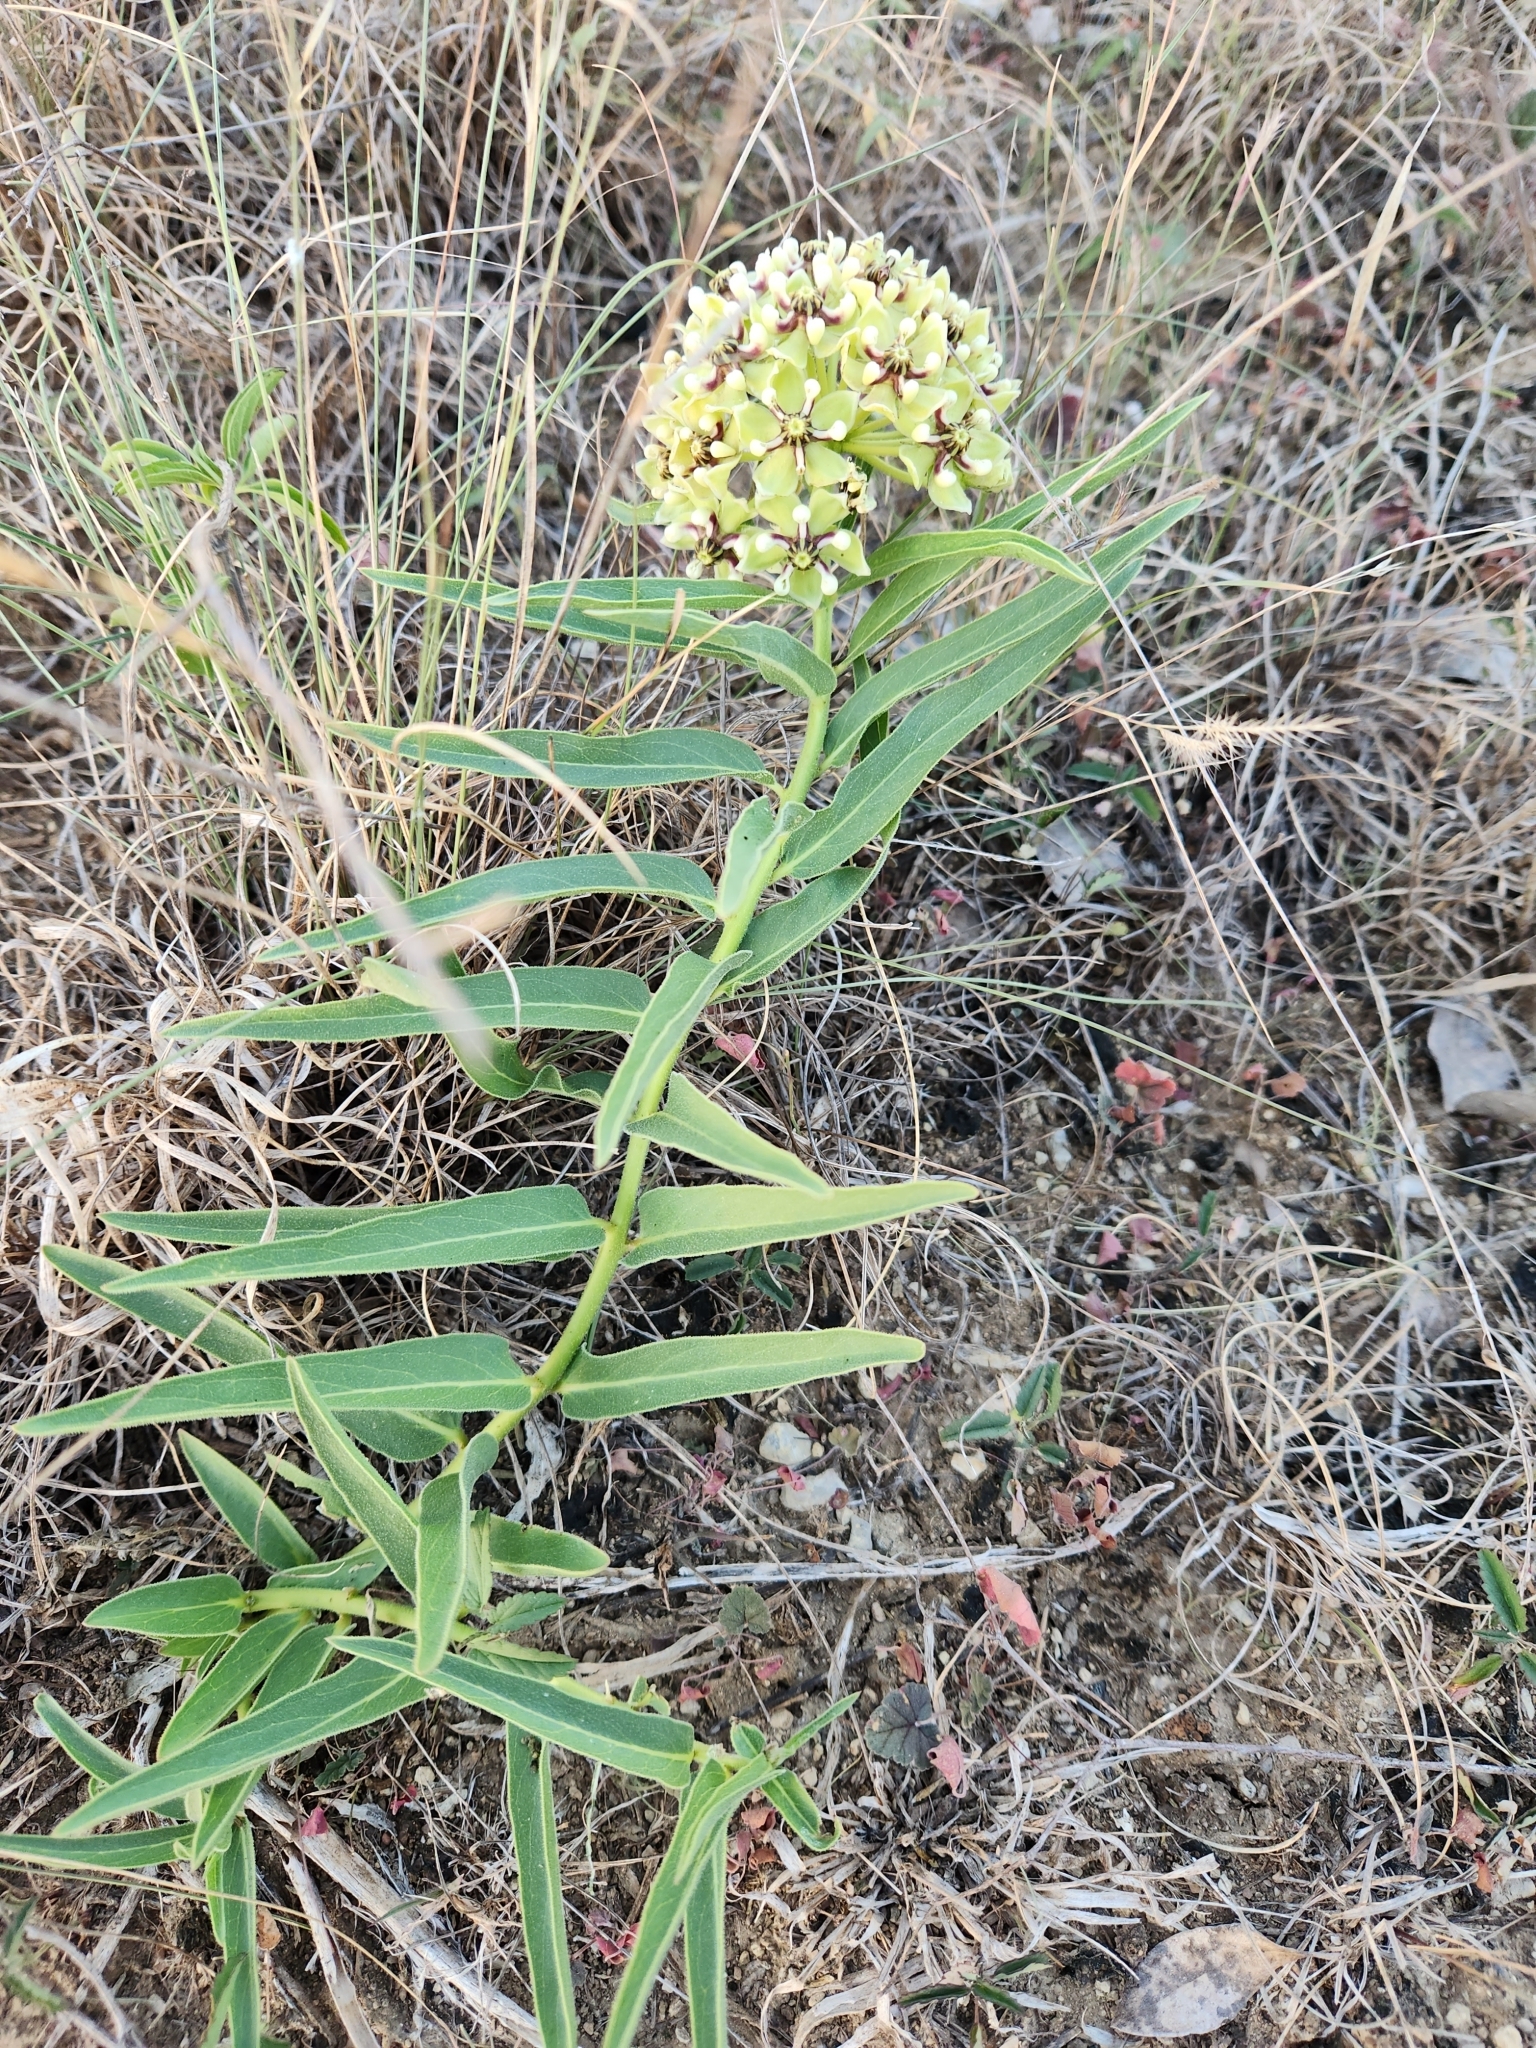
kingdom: Plantae
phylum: Tracheophyta
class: Magnoliopsida
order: Gentianales
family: Apocynaceae
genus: Asclepias
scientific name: Asclepias asperula
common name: Antelope horns
